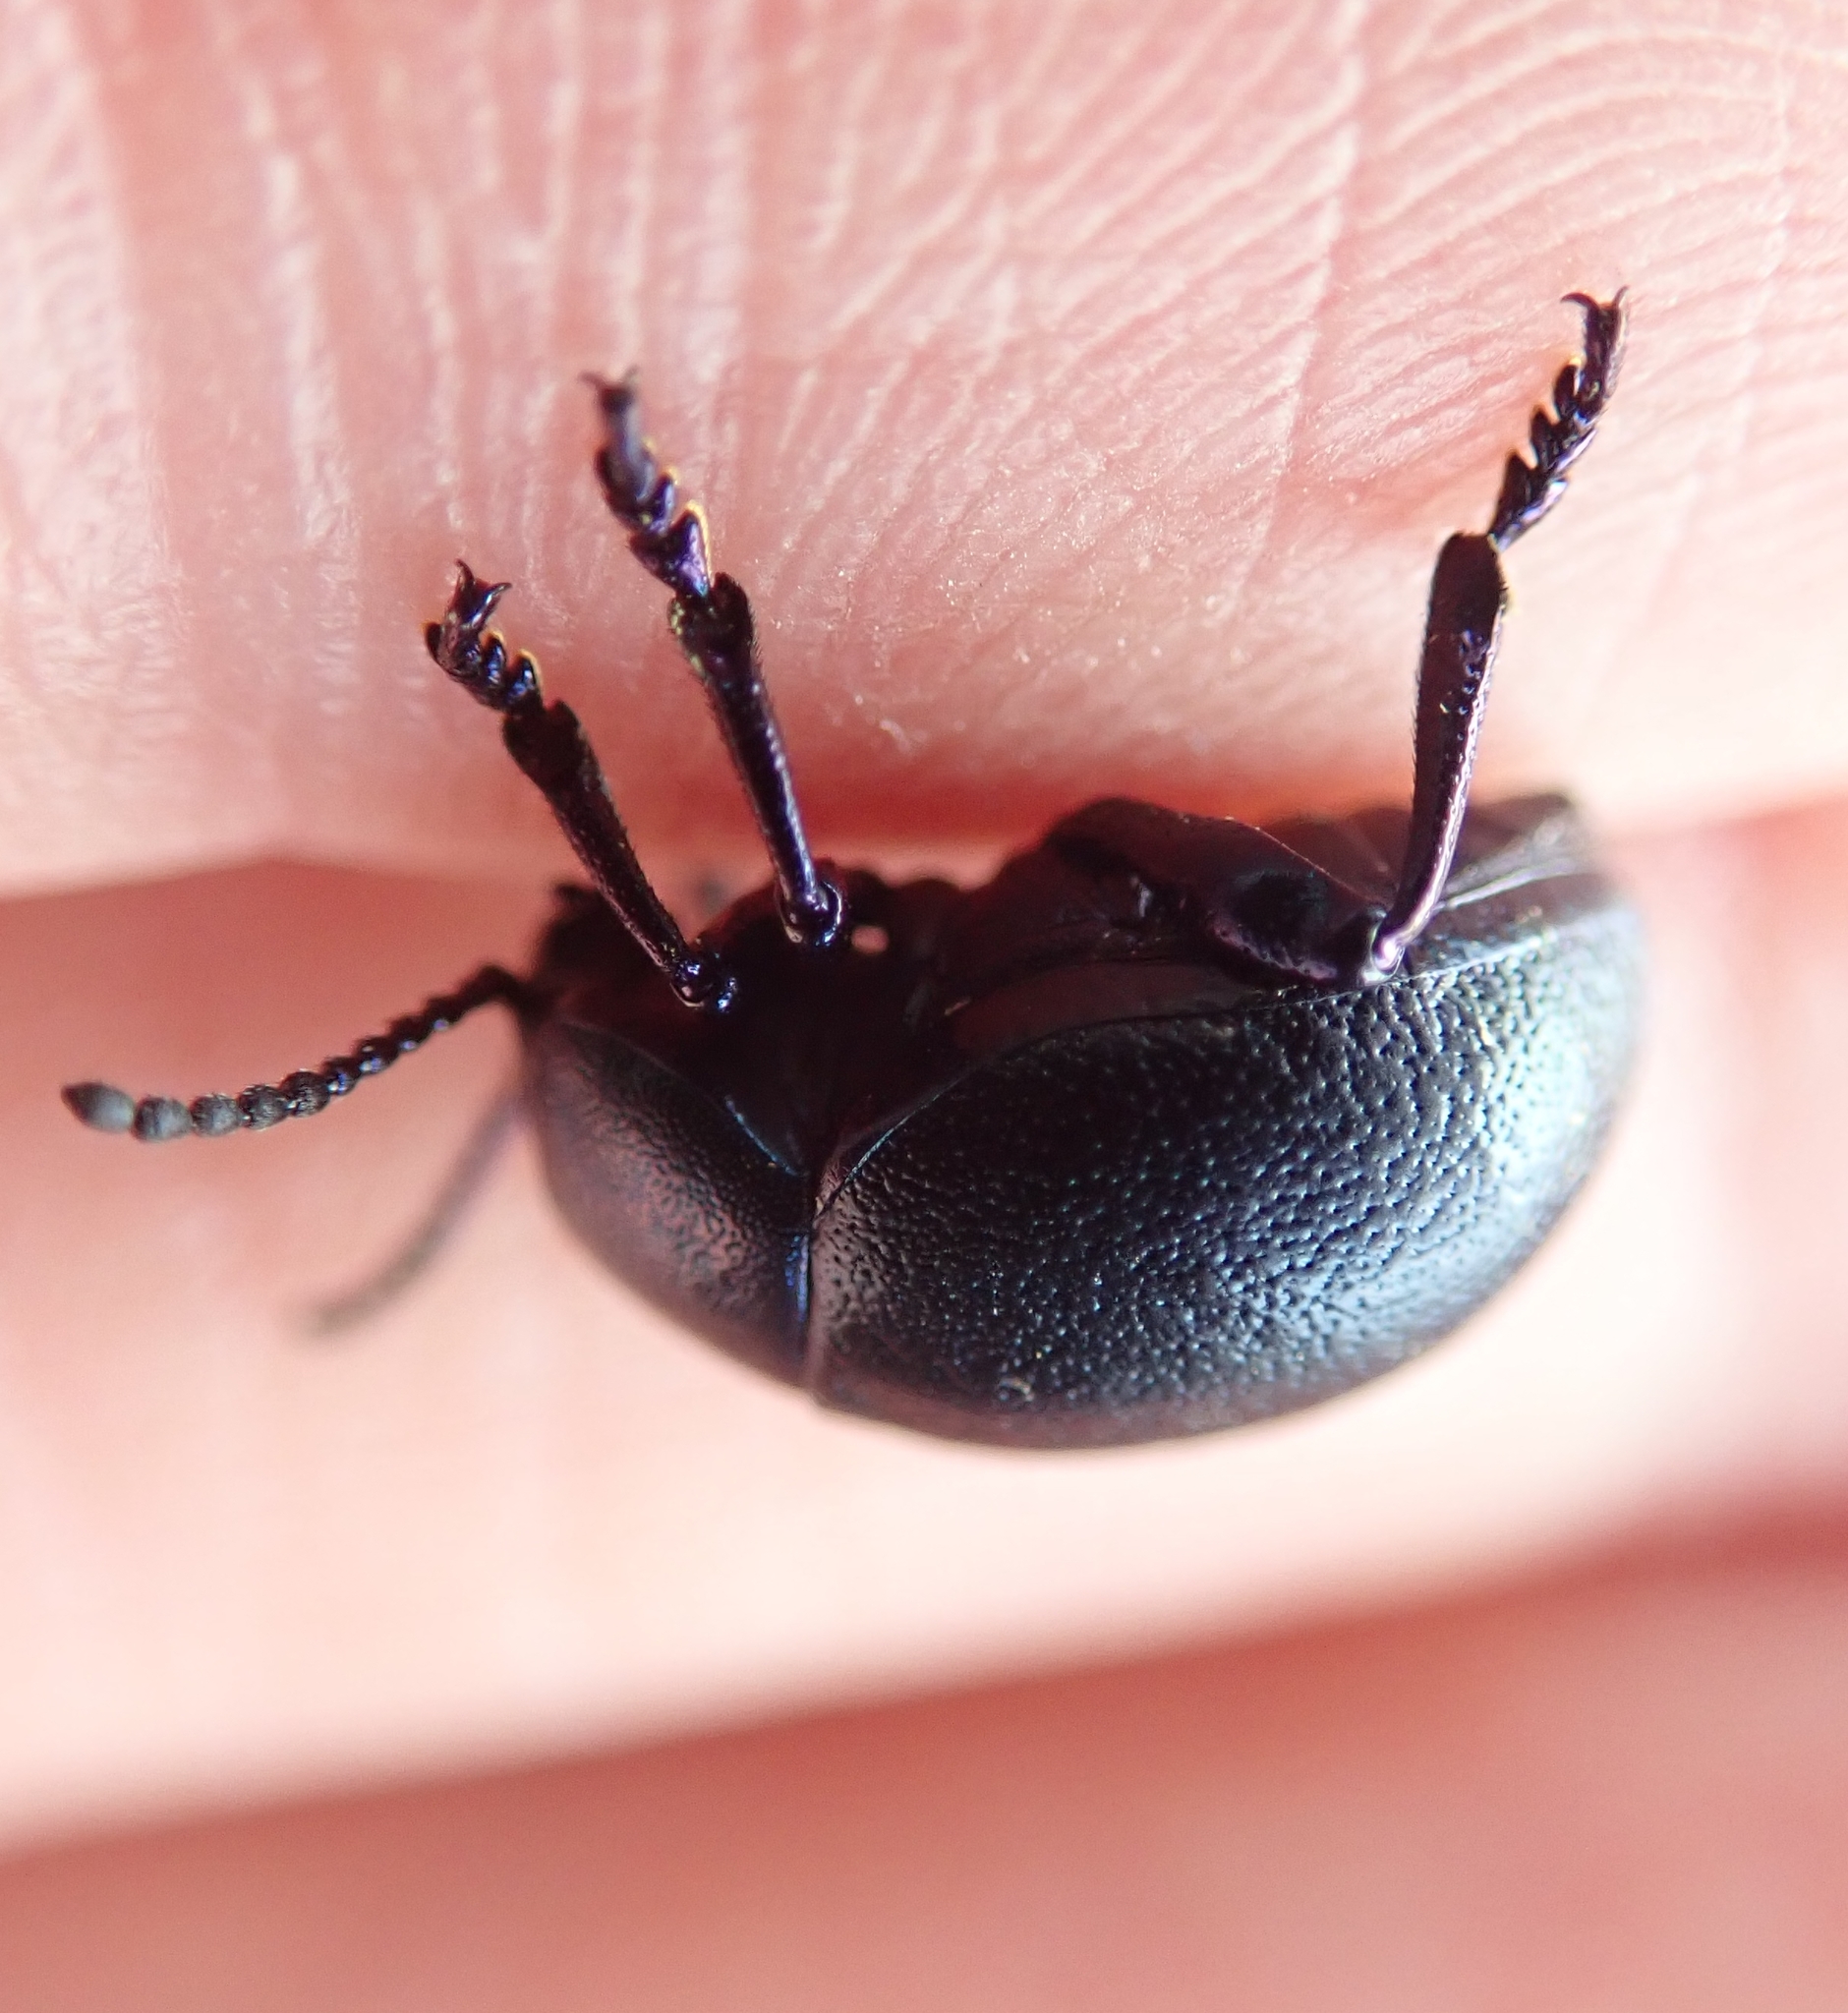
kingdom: Animalia
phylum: Arthropoda
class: Insecta
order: Coleoptera
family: Chrysomelidae
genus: Timarcha
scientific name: Timarcha goettingensis
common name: Small bloody-nosed beetle
